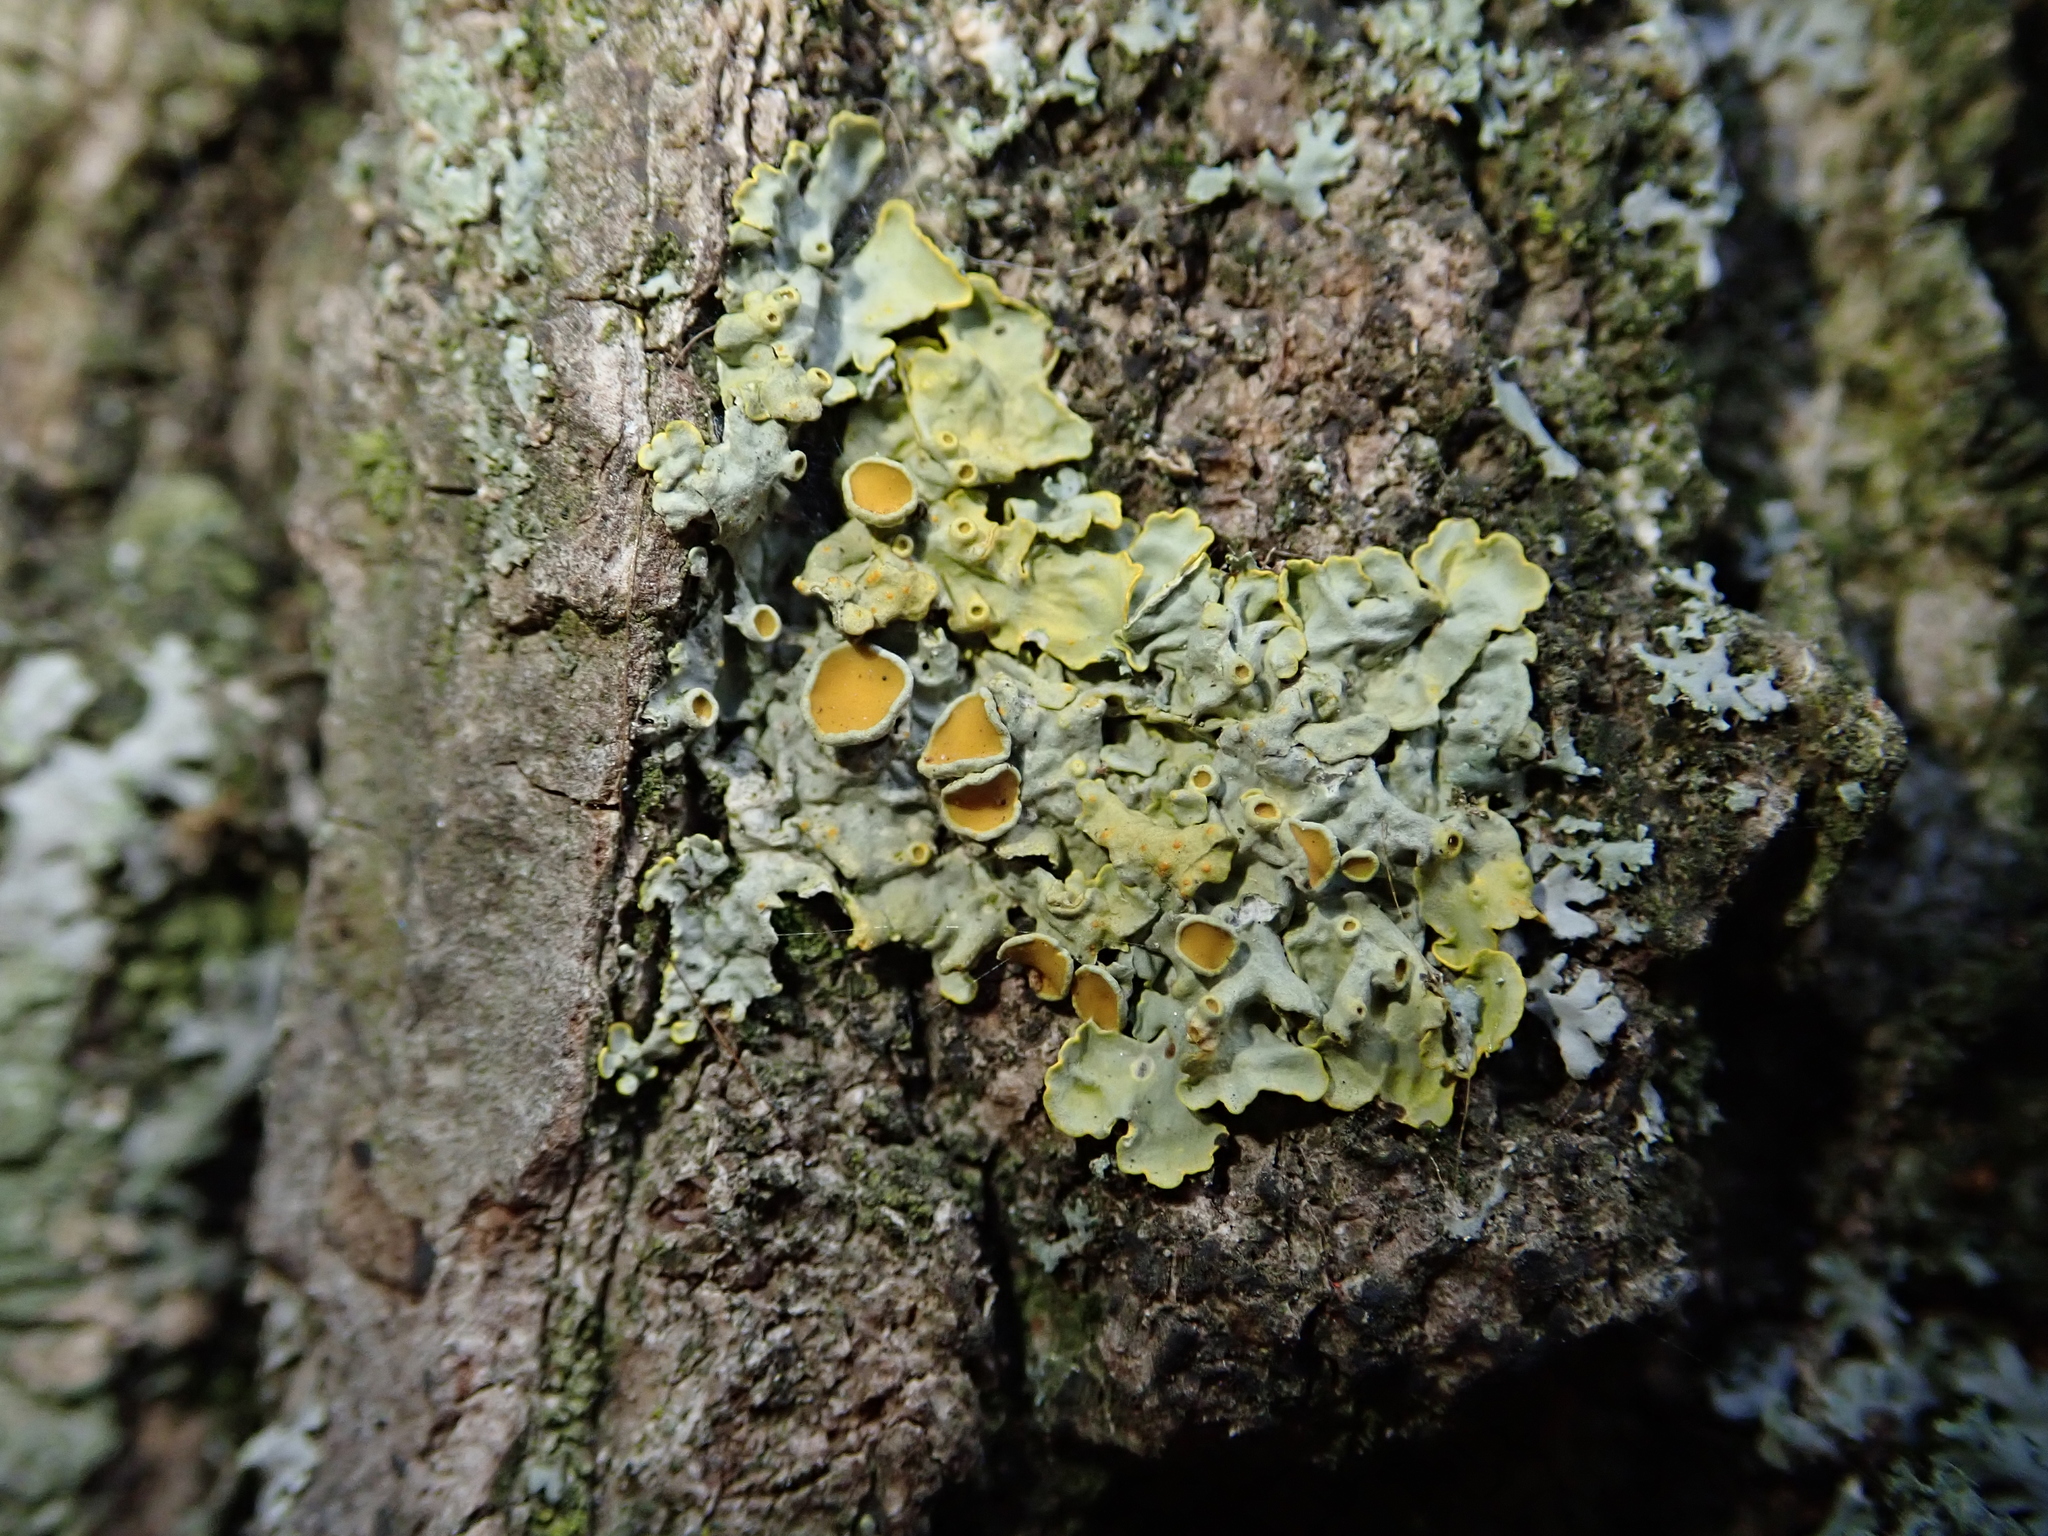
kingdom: Fungi
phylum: Ascomycota
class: Lecanoromycetes
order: Teloschistales
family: Teloschistaceae
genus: Xanthoria
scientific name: Xanthoria parietina
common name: Common orange lichen
